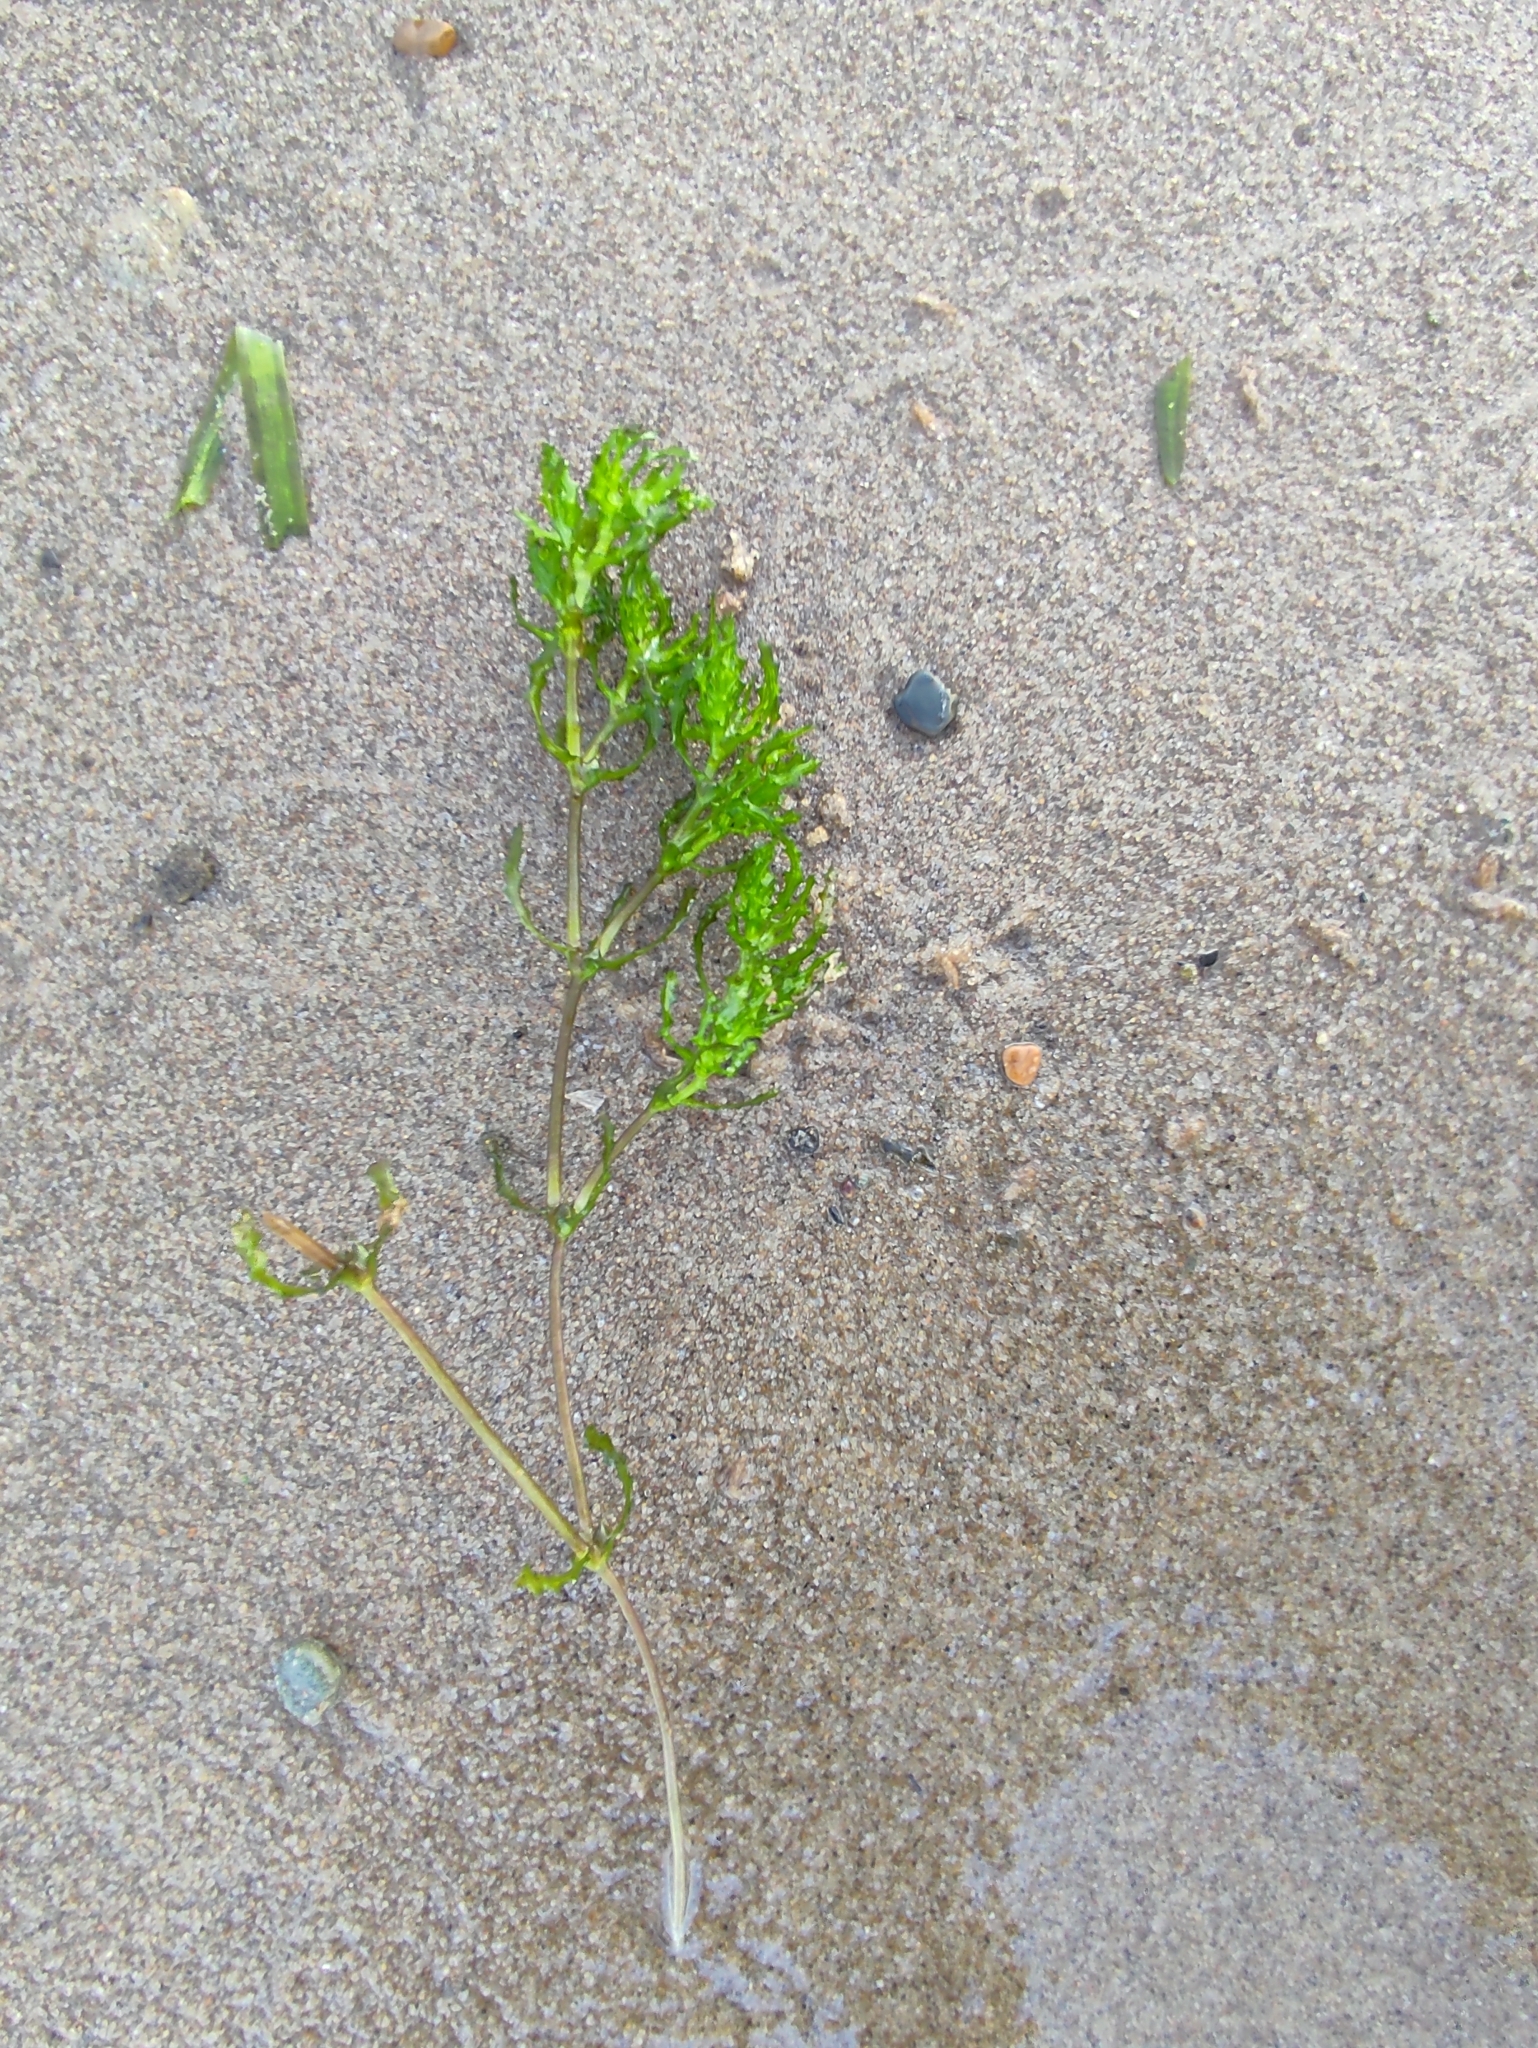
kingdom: Plantae
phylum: Tracheophyta
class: Liliopsida
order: Alismatales
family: Hydrocharitaceae
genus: Najas
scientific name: Najas marina
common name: Holly-leaved naiad
